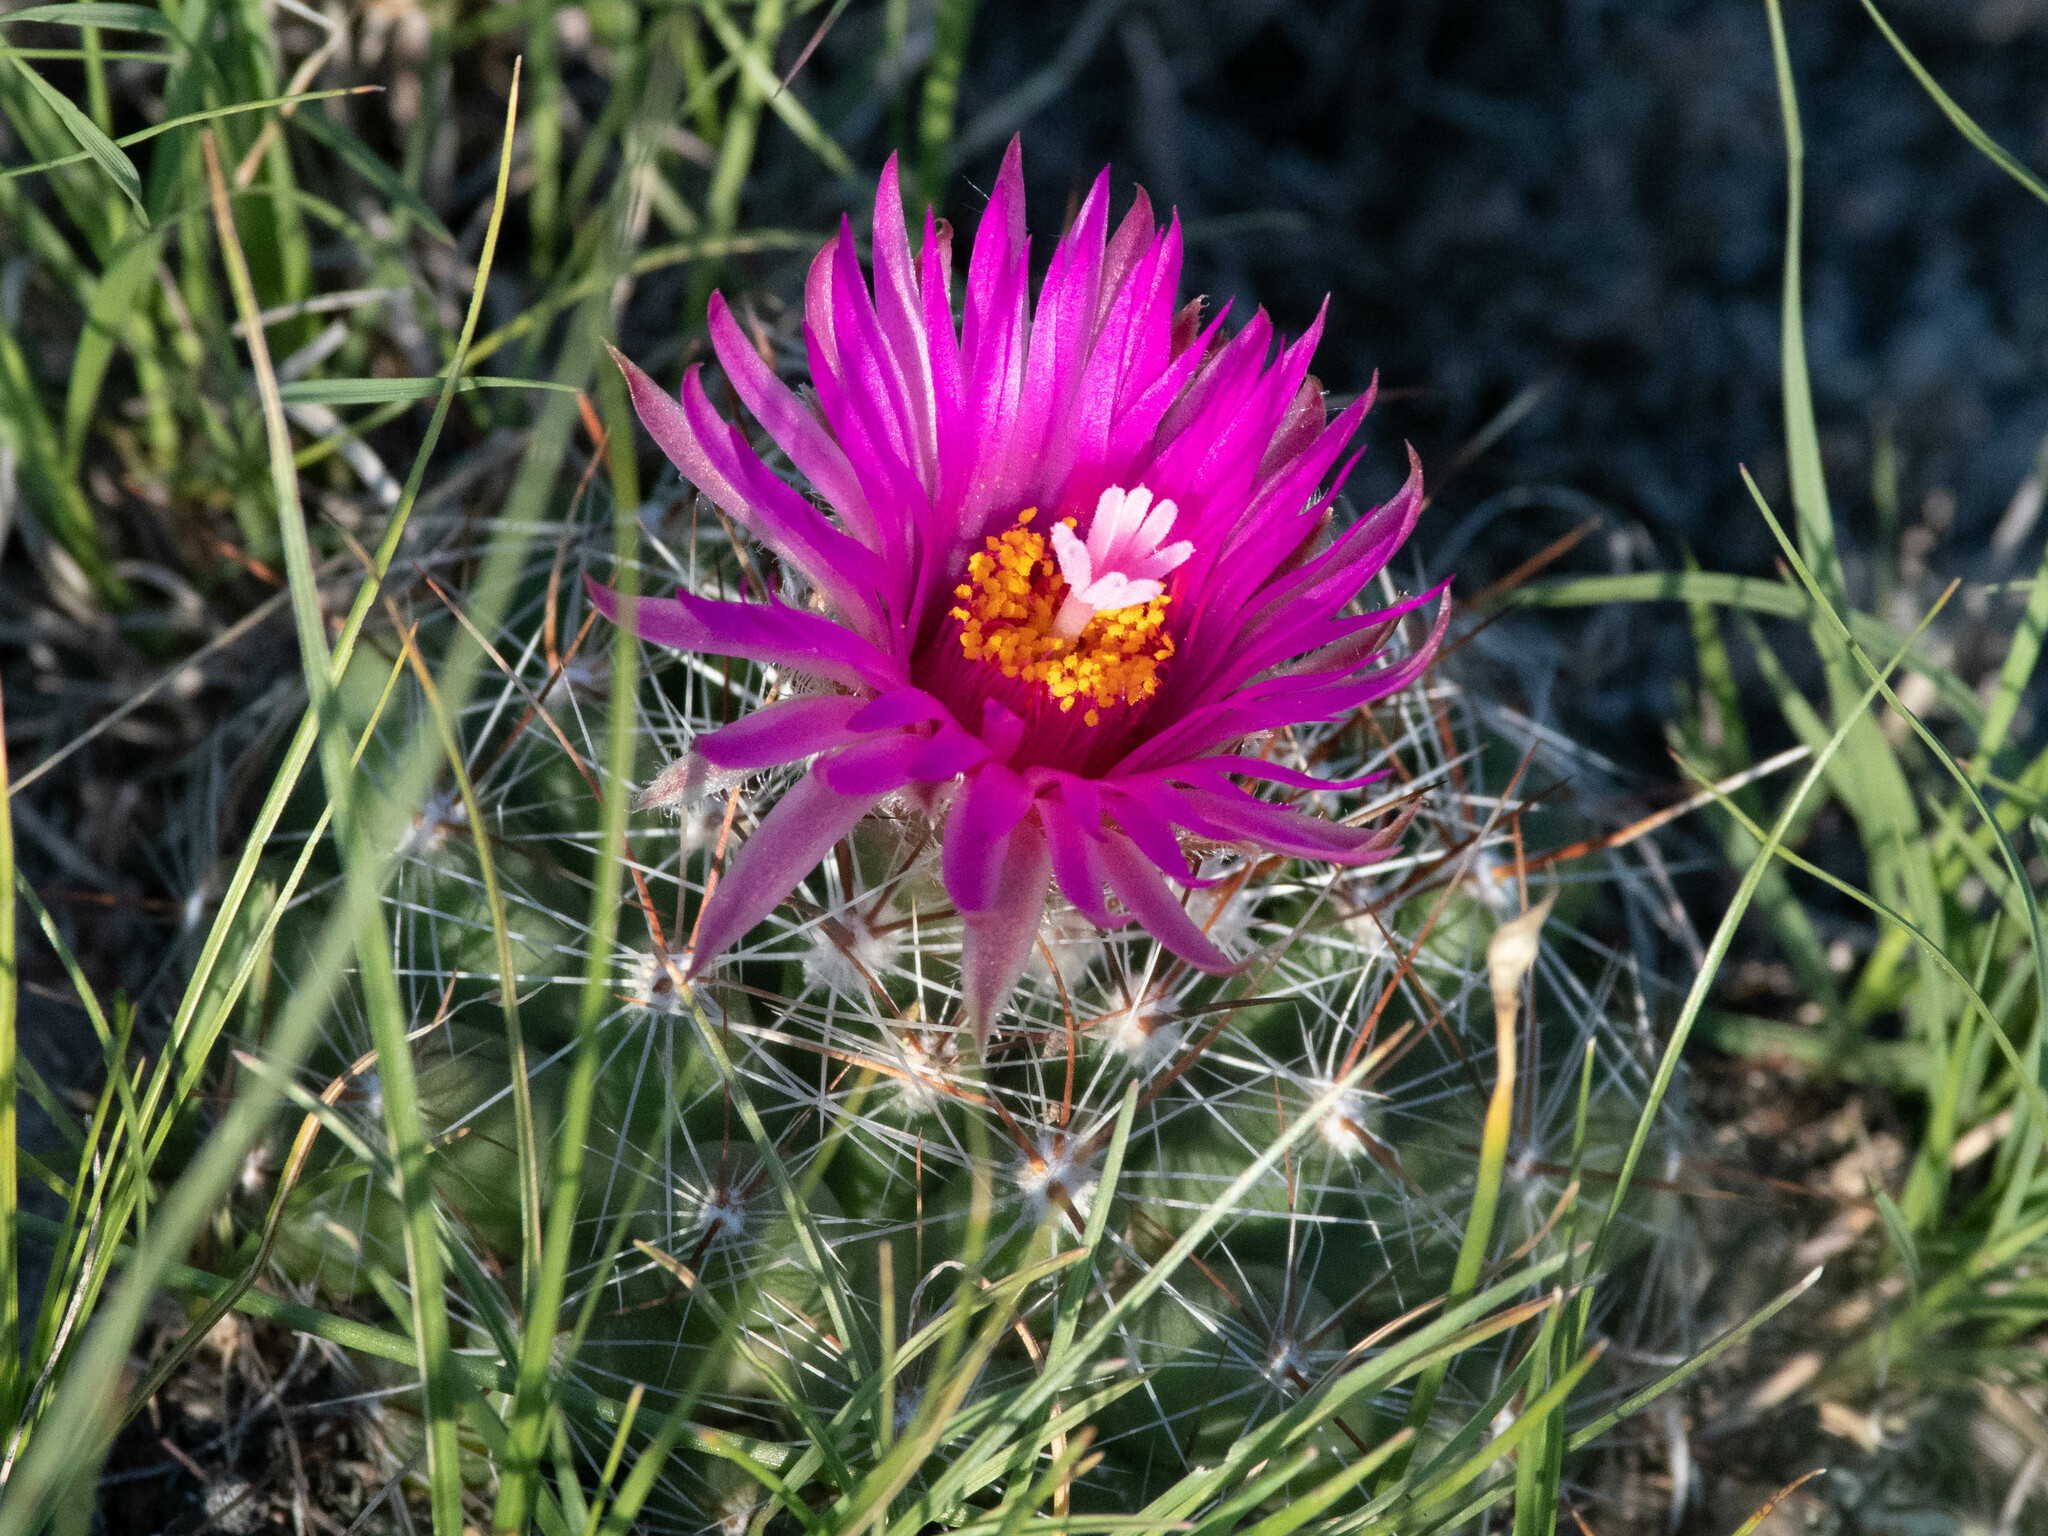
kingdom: Plantae
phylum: Tracheophyta
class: Magnoliopsida
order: Caryophyllales
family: Cactaceae
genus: Pelecyphora
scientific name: Pelecyphora vivipara
